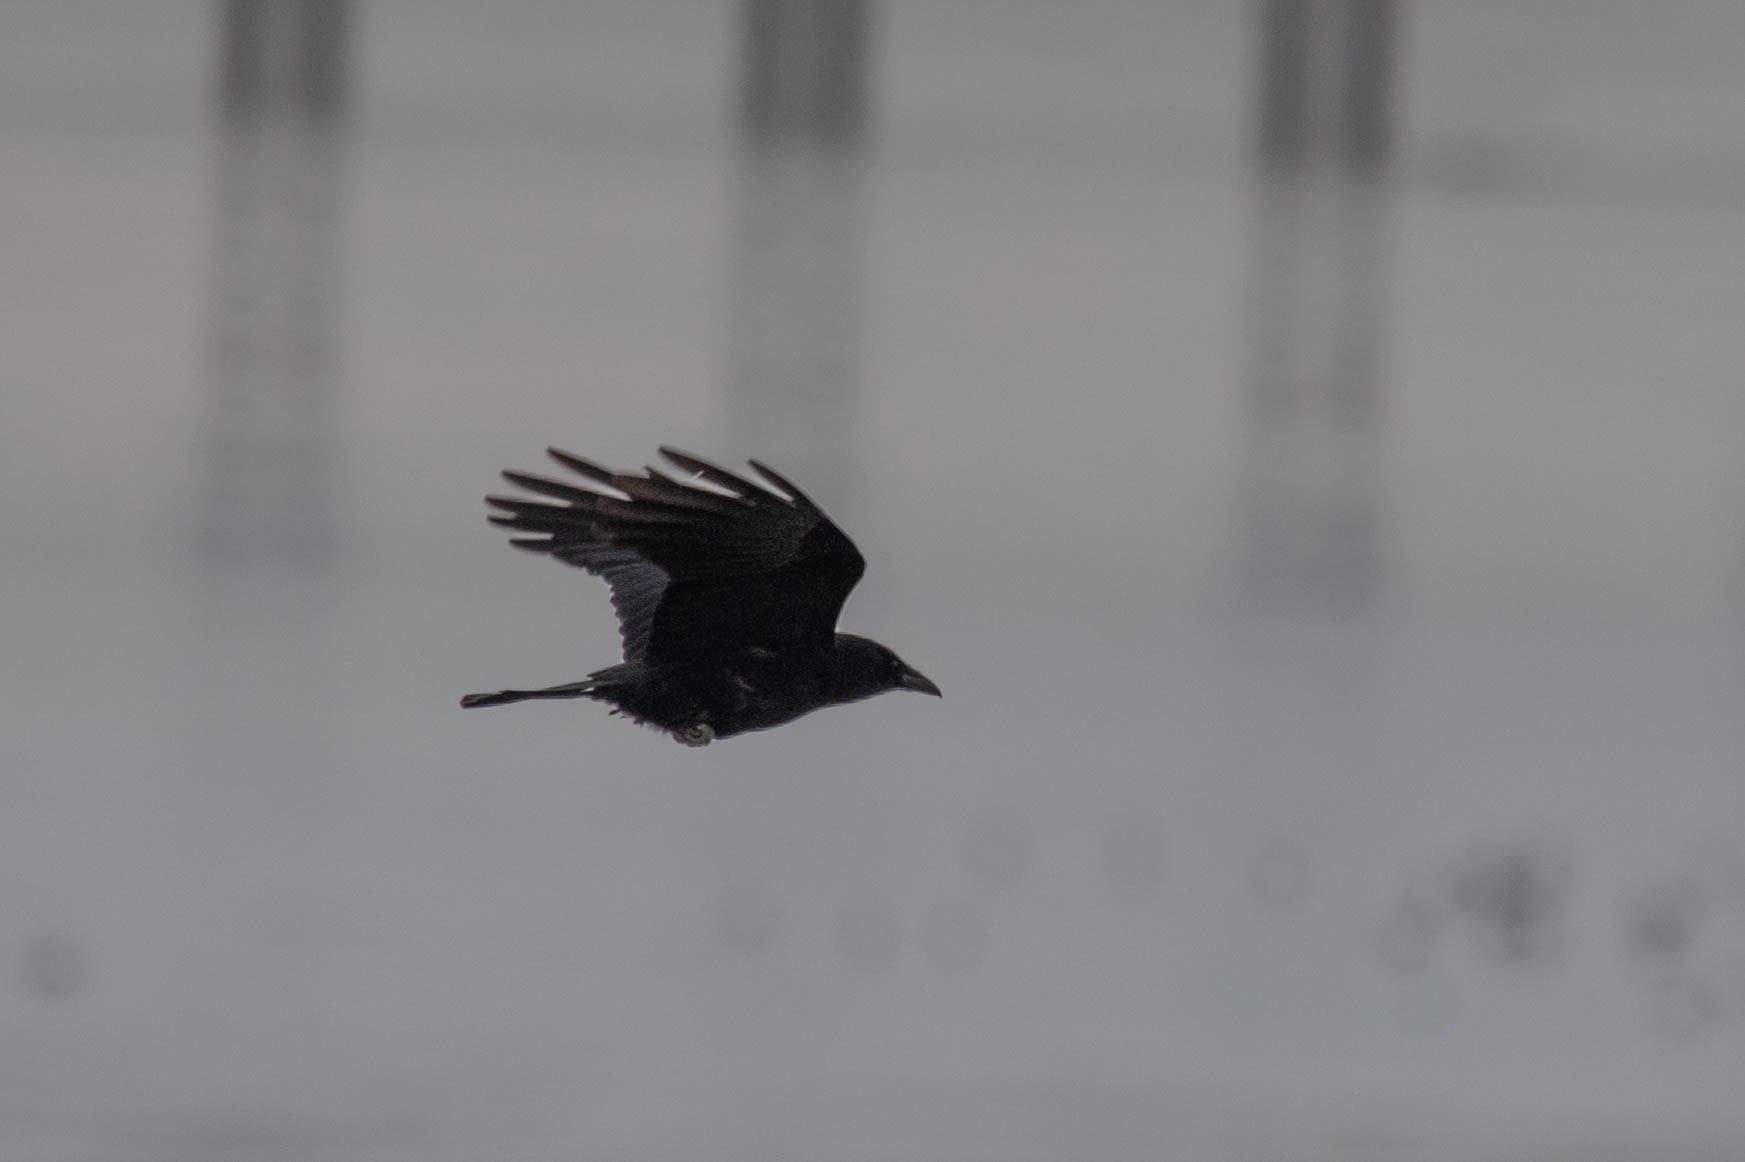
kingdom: Animalia
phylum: Chordata
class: Aves
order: Passeriformes
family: Corvidae
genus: Corvus
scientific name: Corvus brachyrhynchos
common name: American crow
